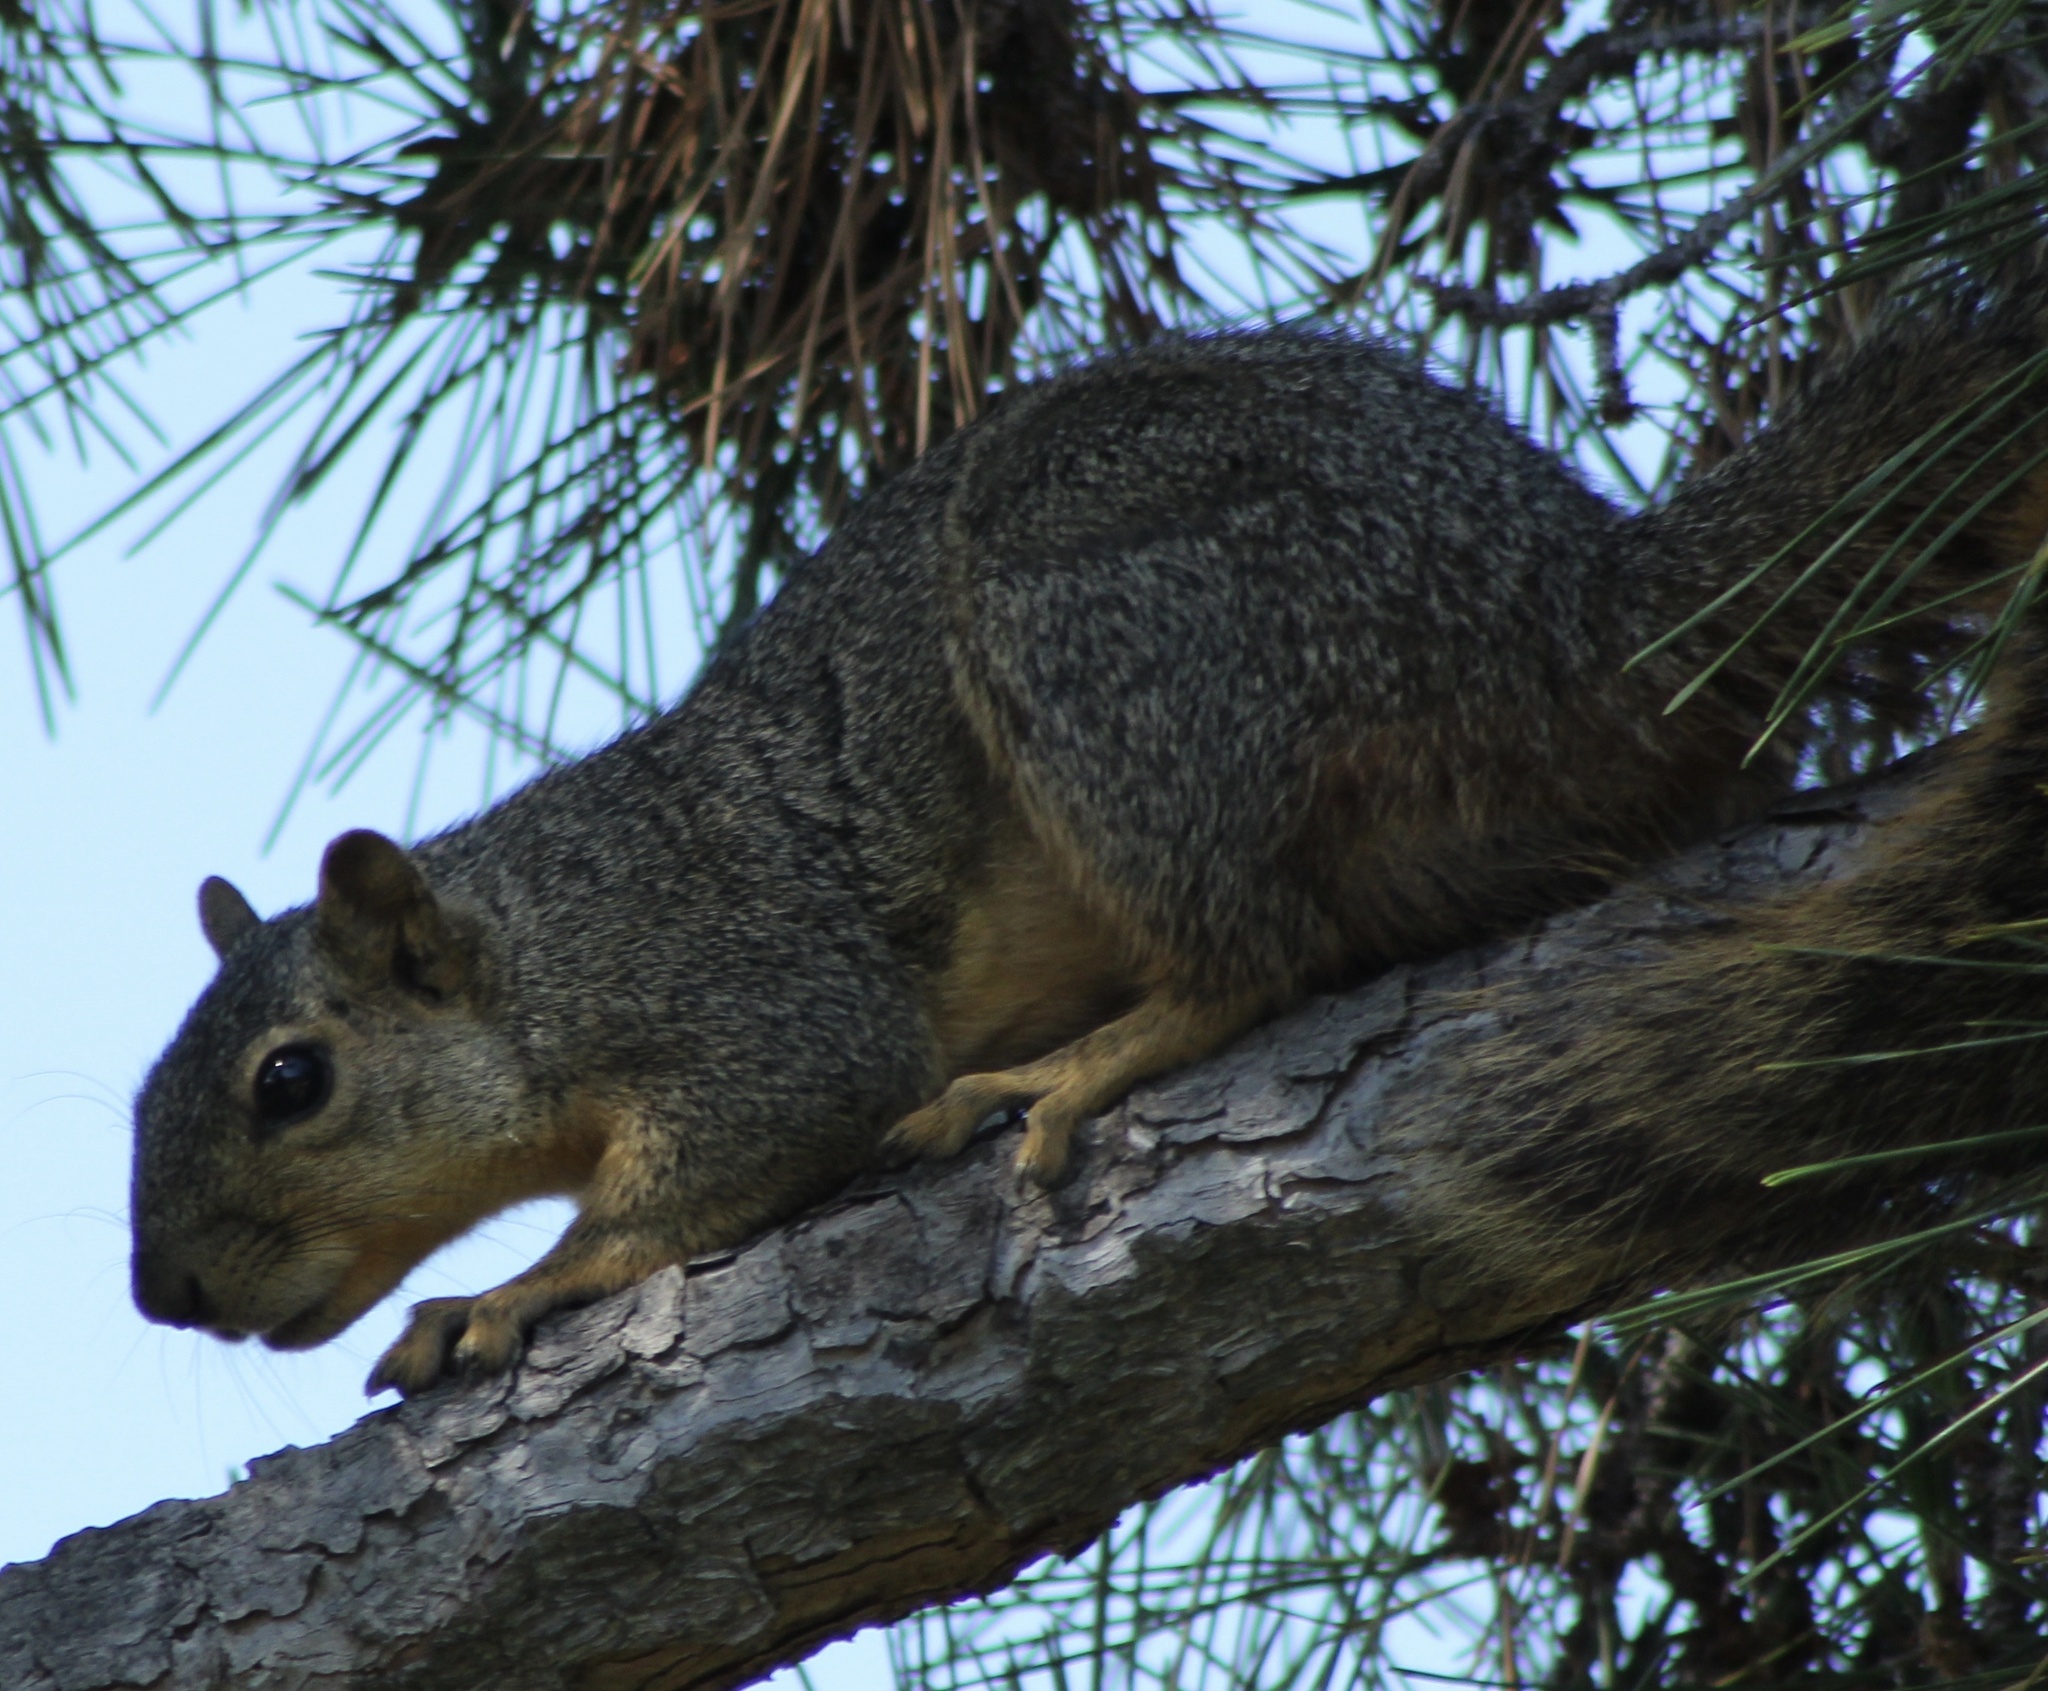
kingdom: Animalia
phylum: Chordata
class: Mammalia
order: Rodentia
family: Sciuridae
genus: Sciurus
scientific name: Sciurus niger
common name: Fox squirrel
